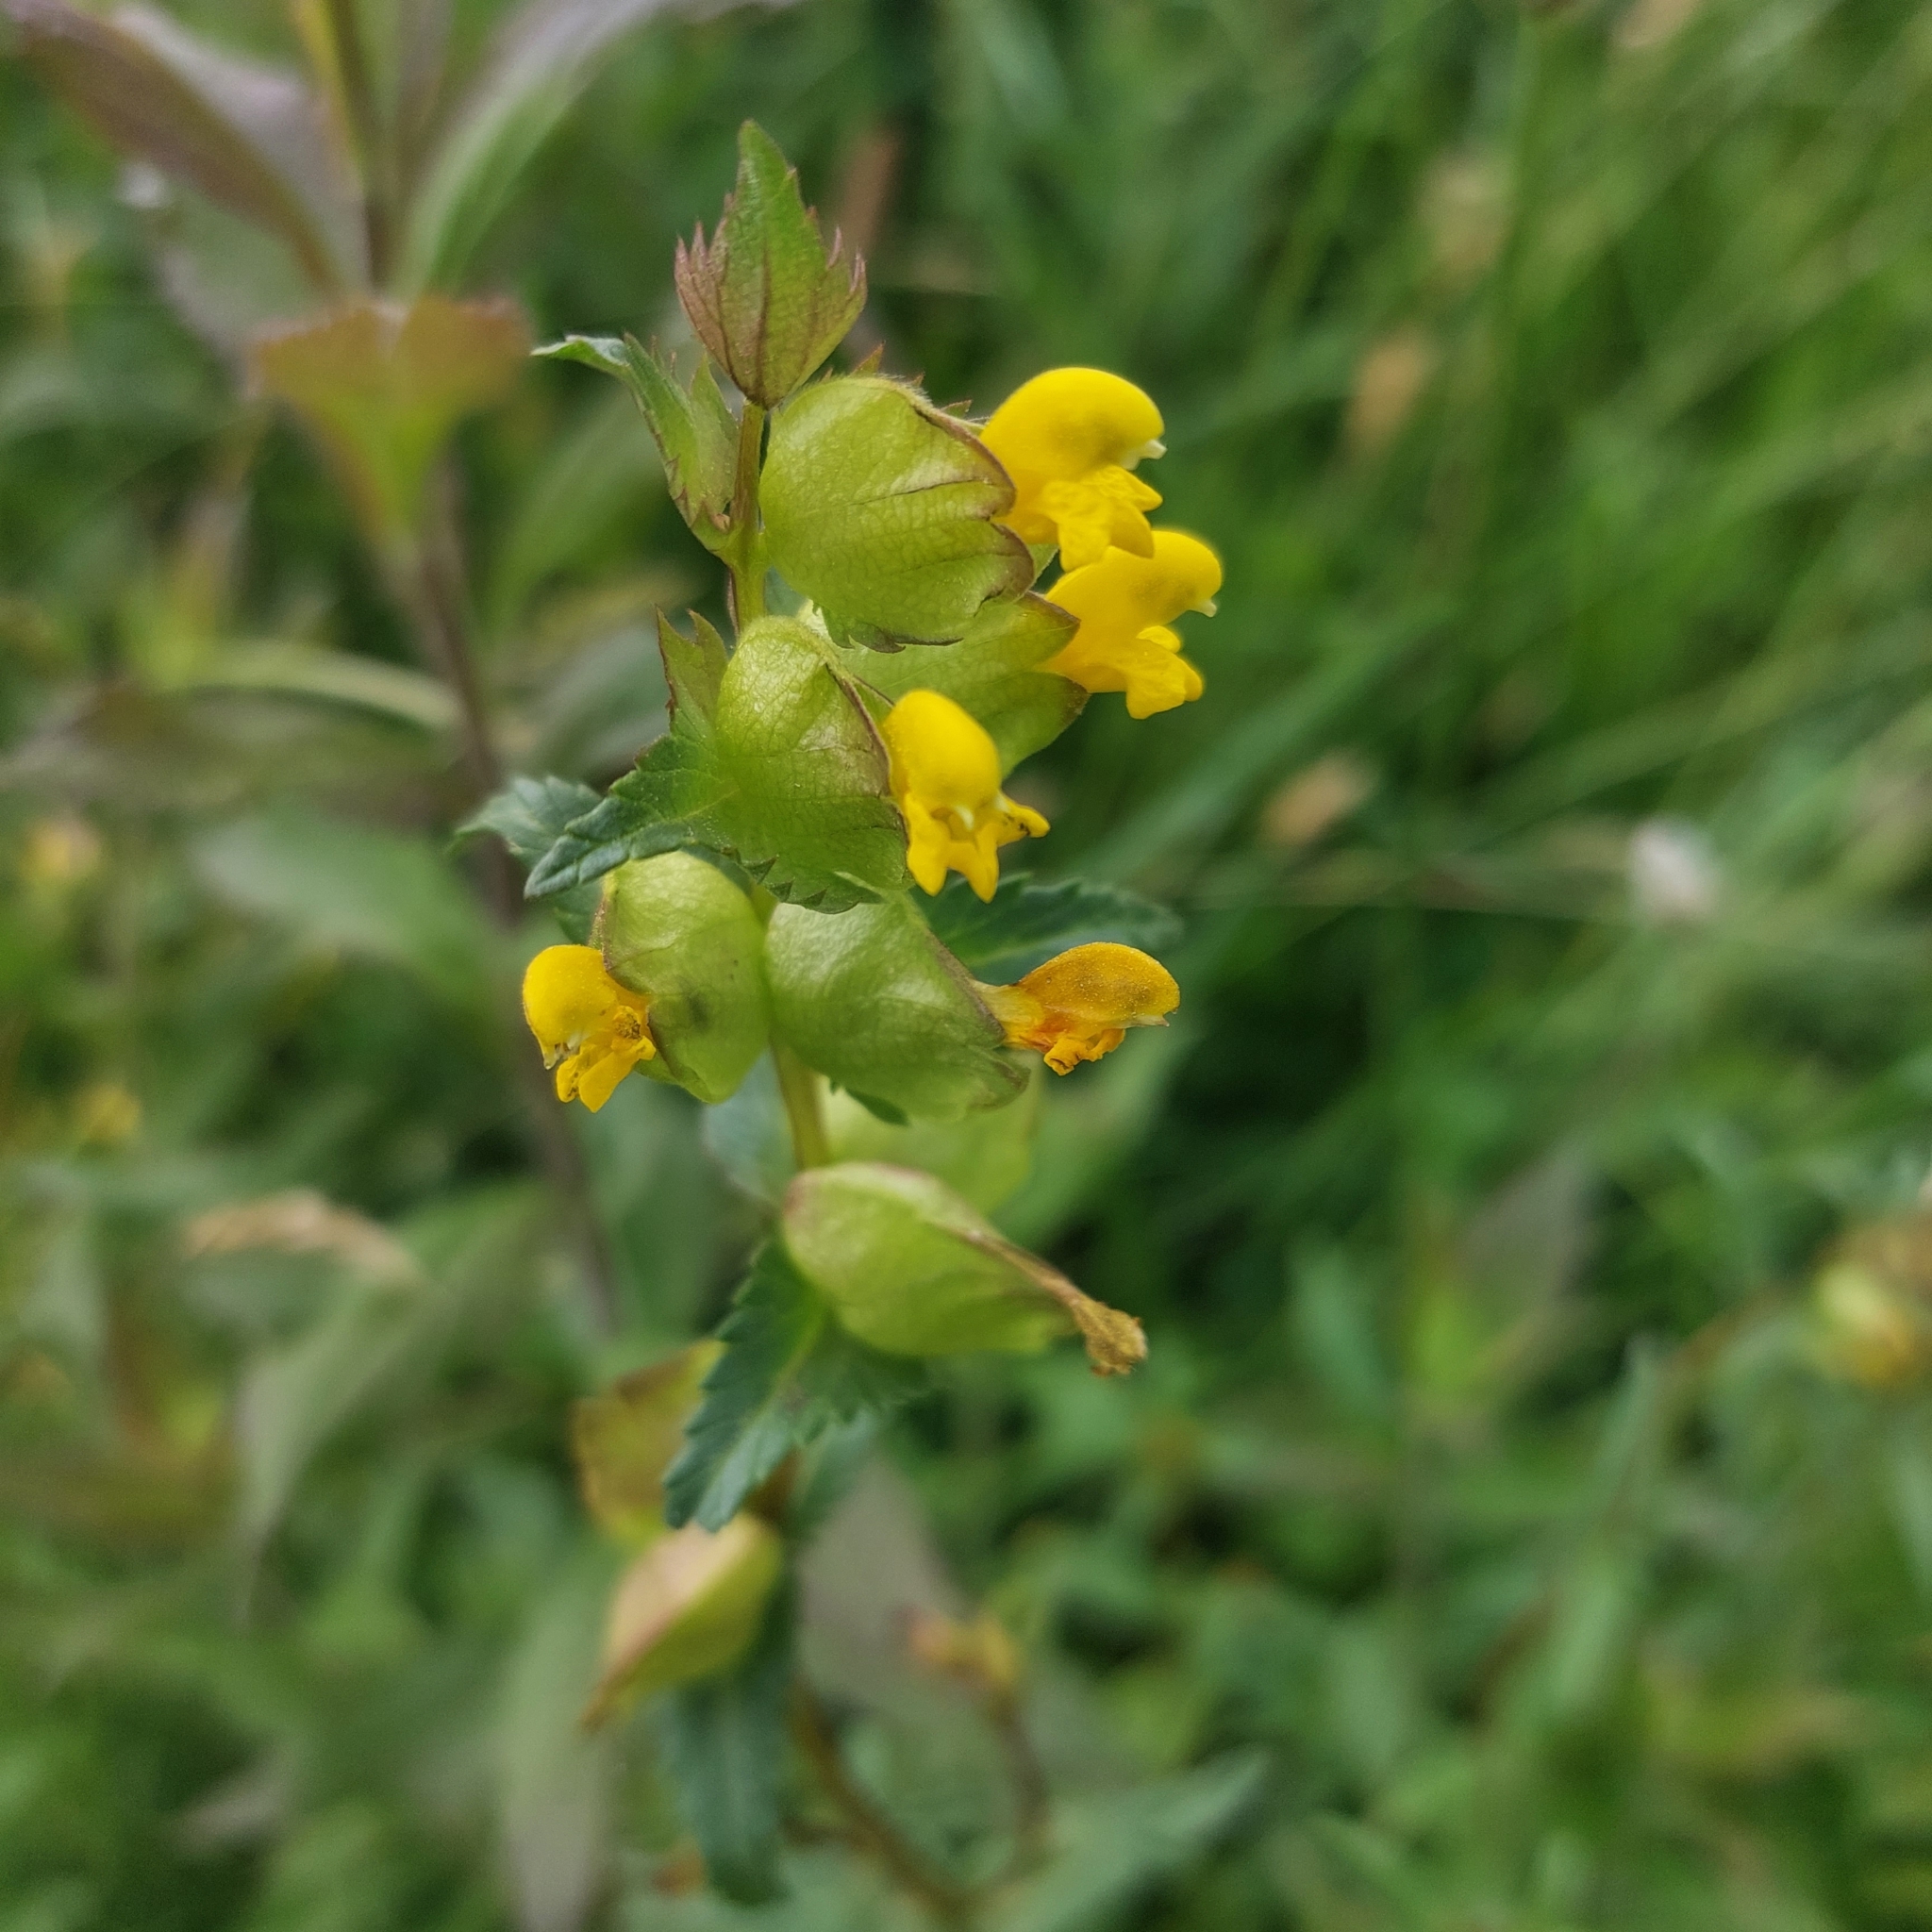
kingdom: Plantae
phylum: Tracheophyta
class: Magnoliopsida
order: Lamiales
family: Orobanchaceae
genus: Rhinanthus
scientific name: Rhinanthus minor
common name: Yellow-rattle
